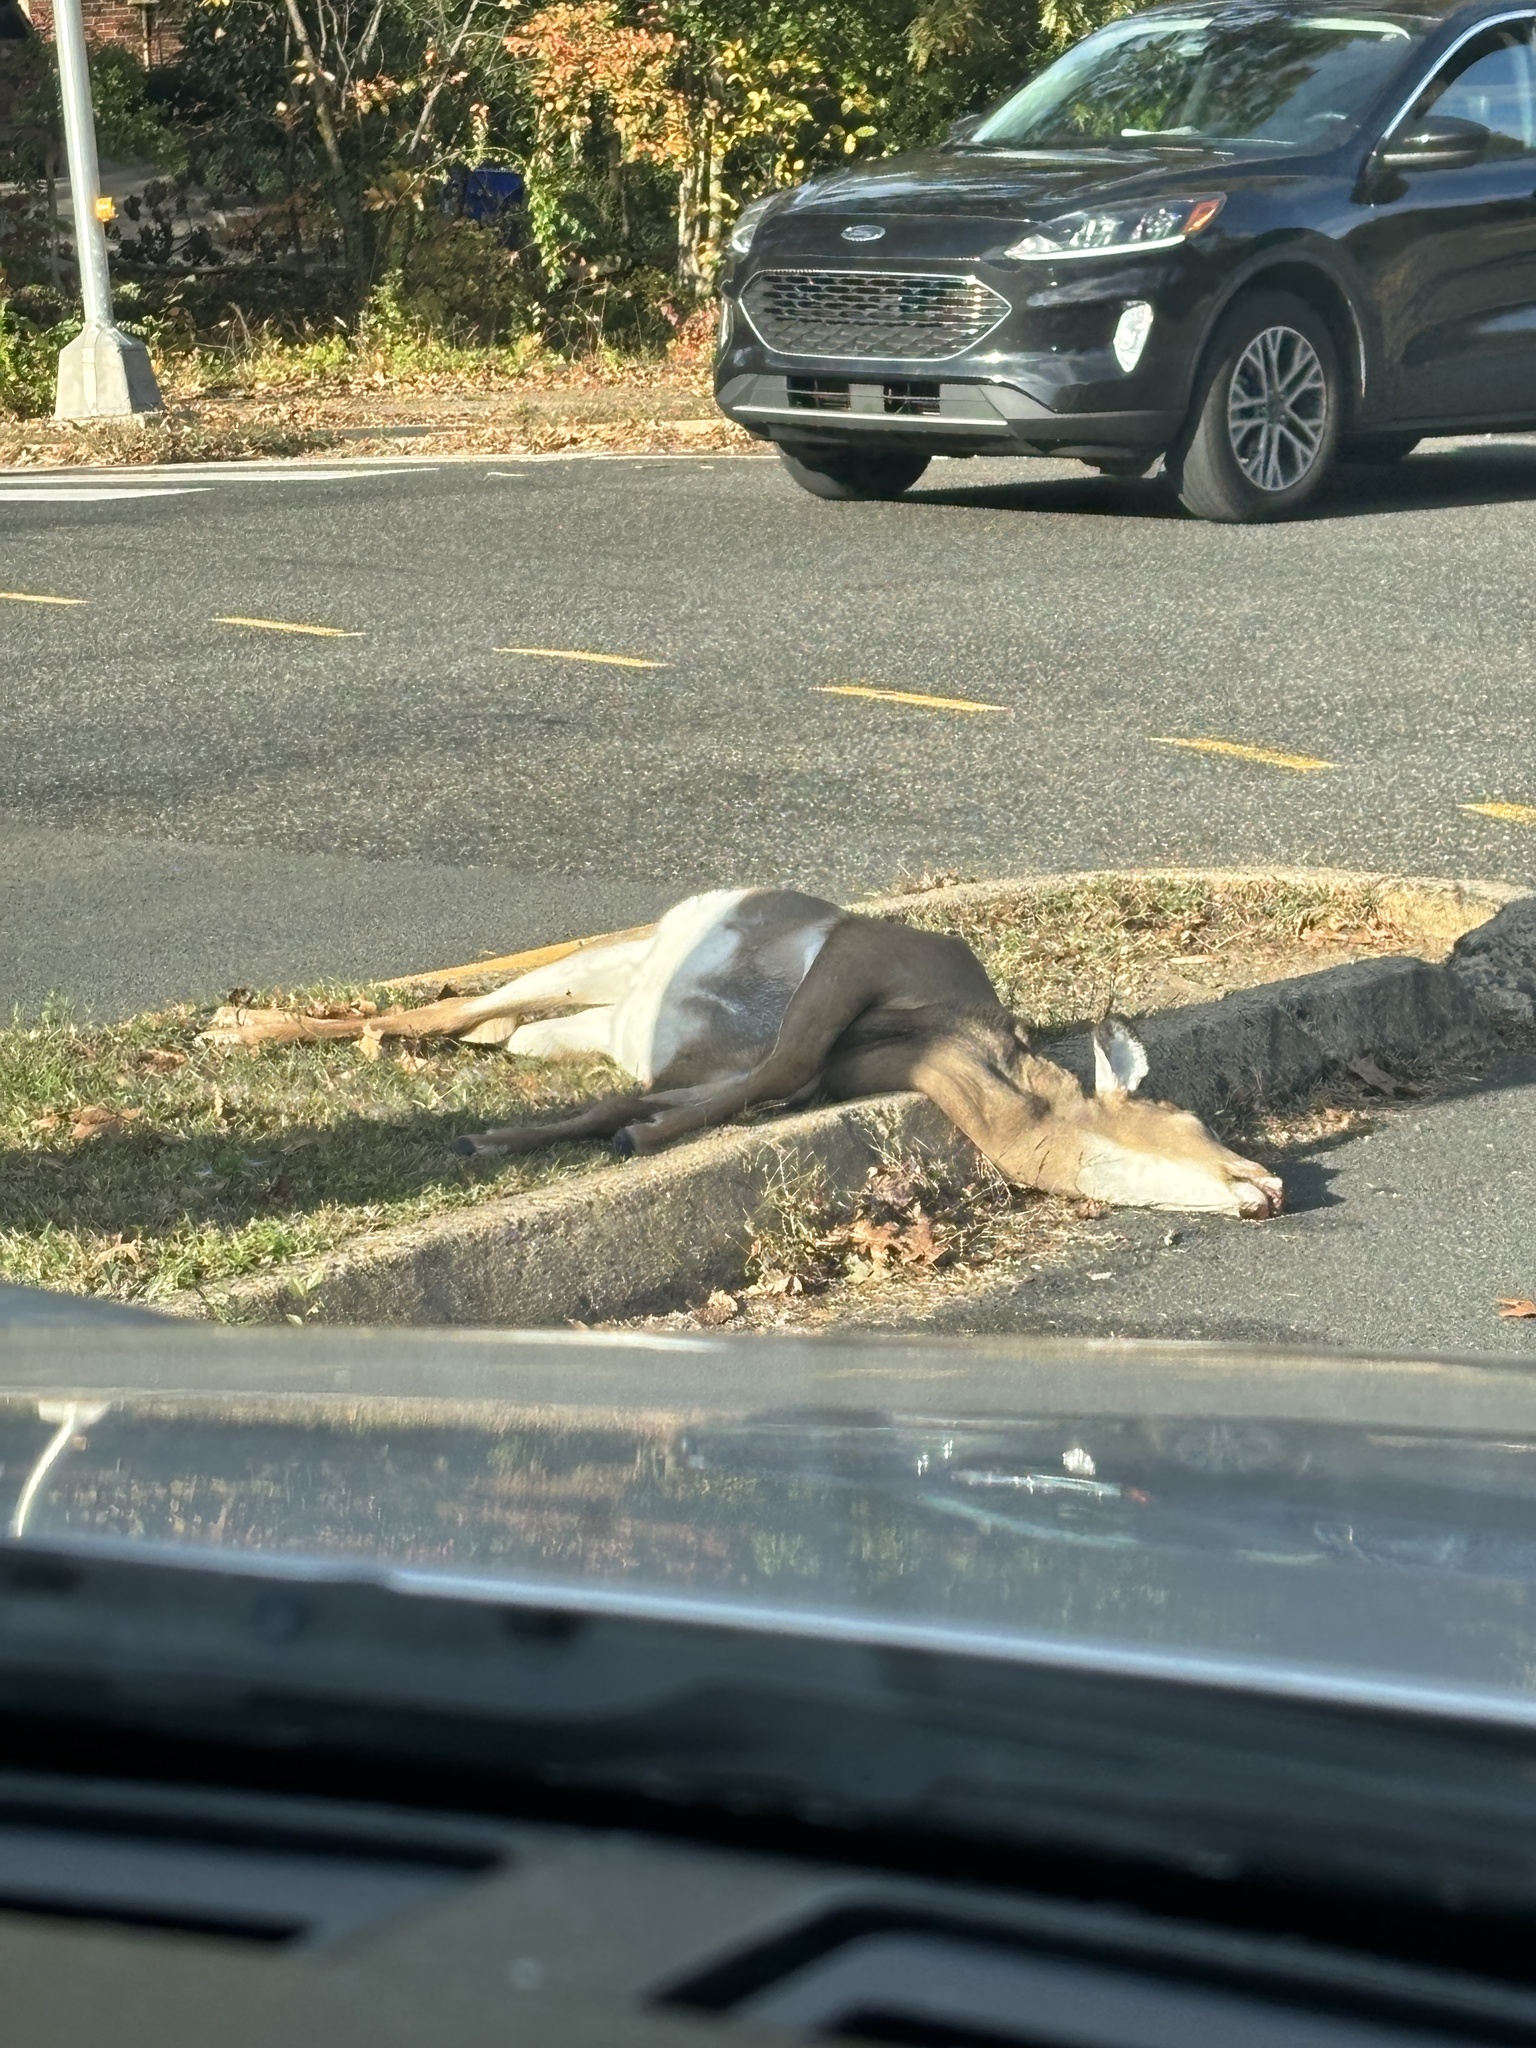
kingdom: Animalia
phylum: Chordata
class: Mammalia
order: Artiodactyla
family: Cervidae
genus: Odocoileus
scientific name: Odocoileus virginianus
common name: White-tailed deer
